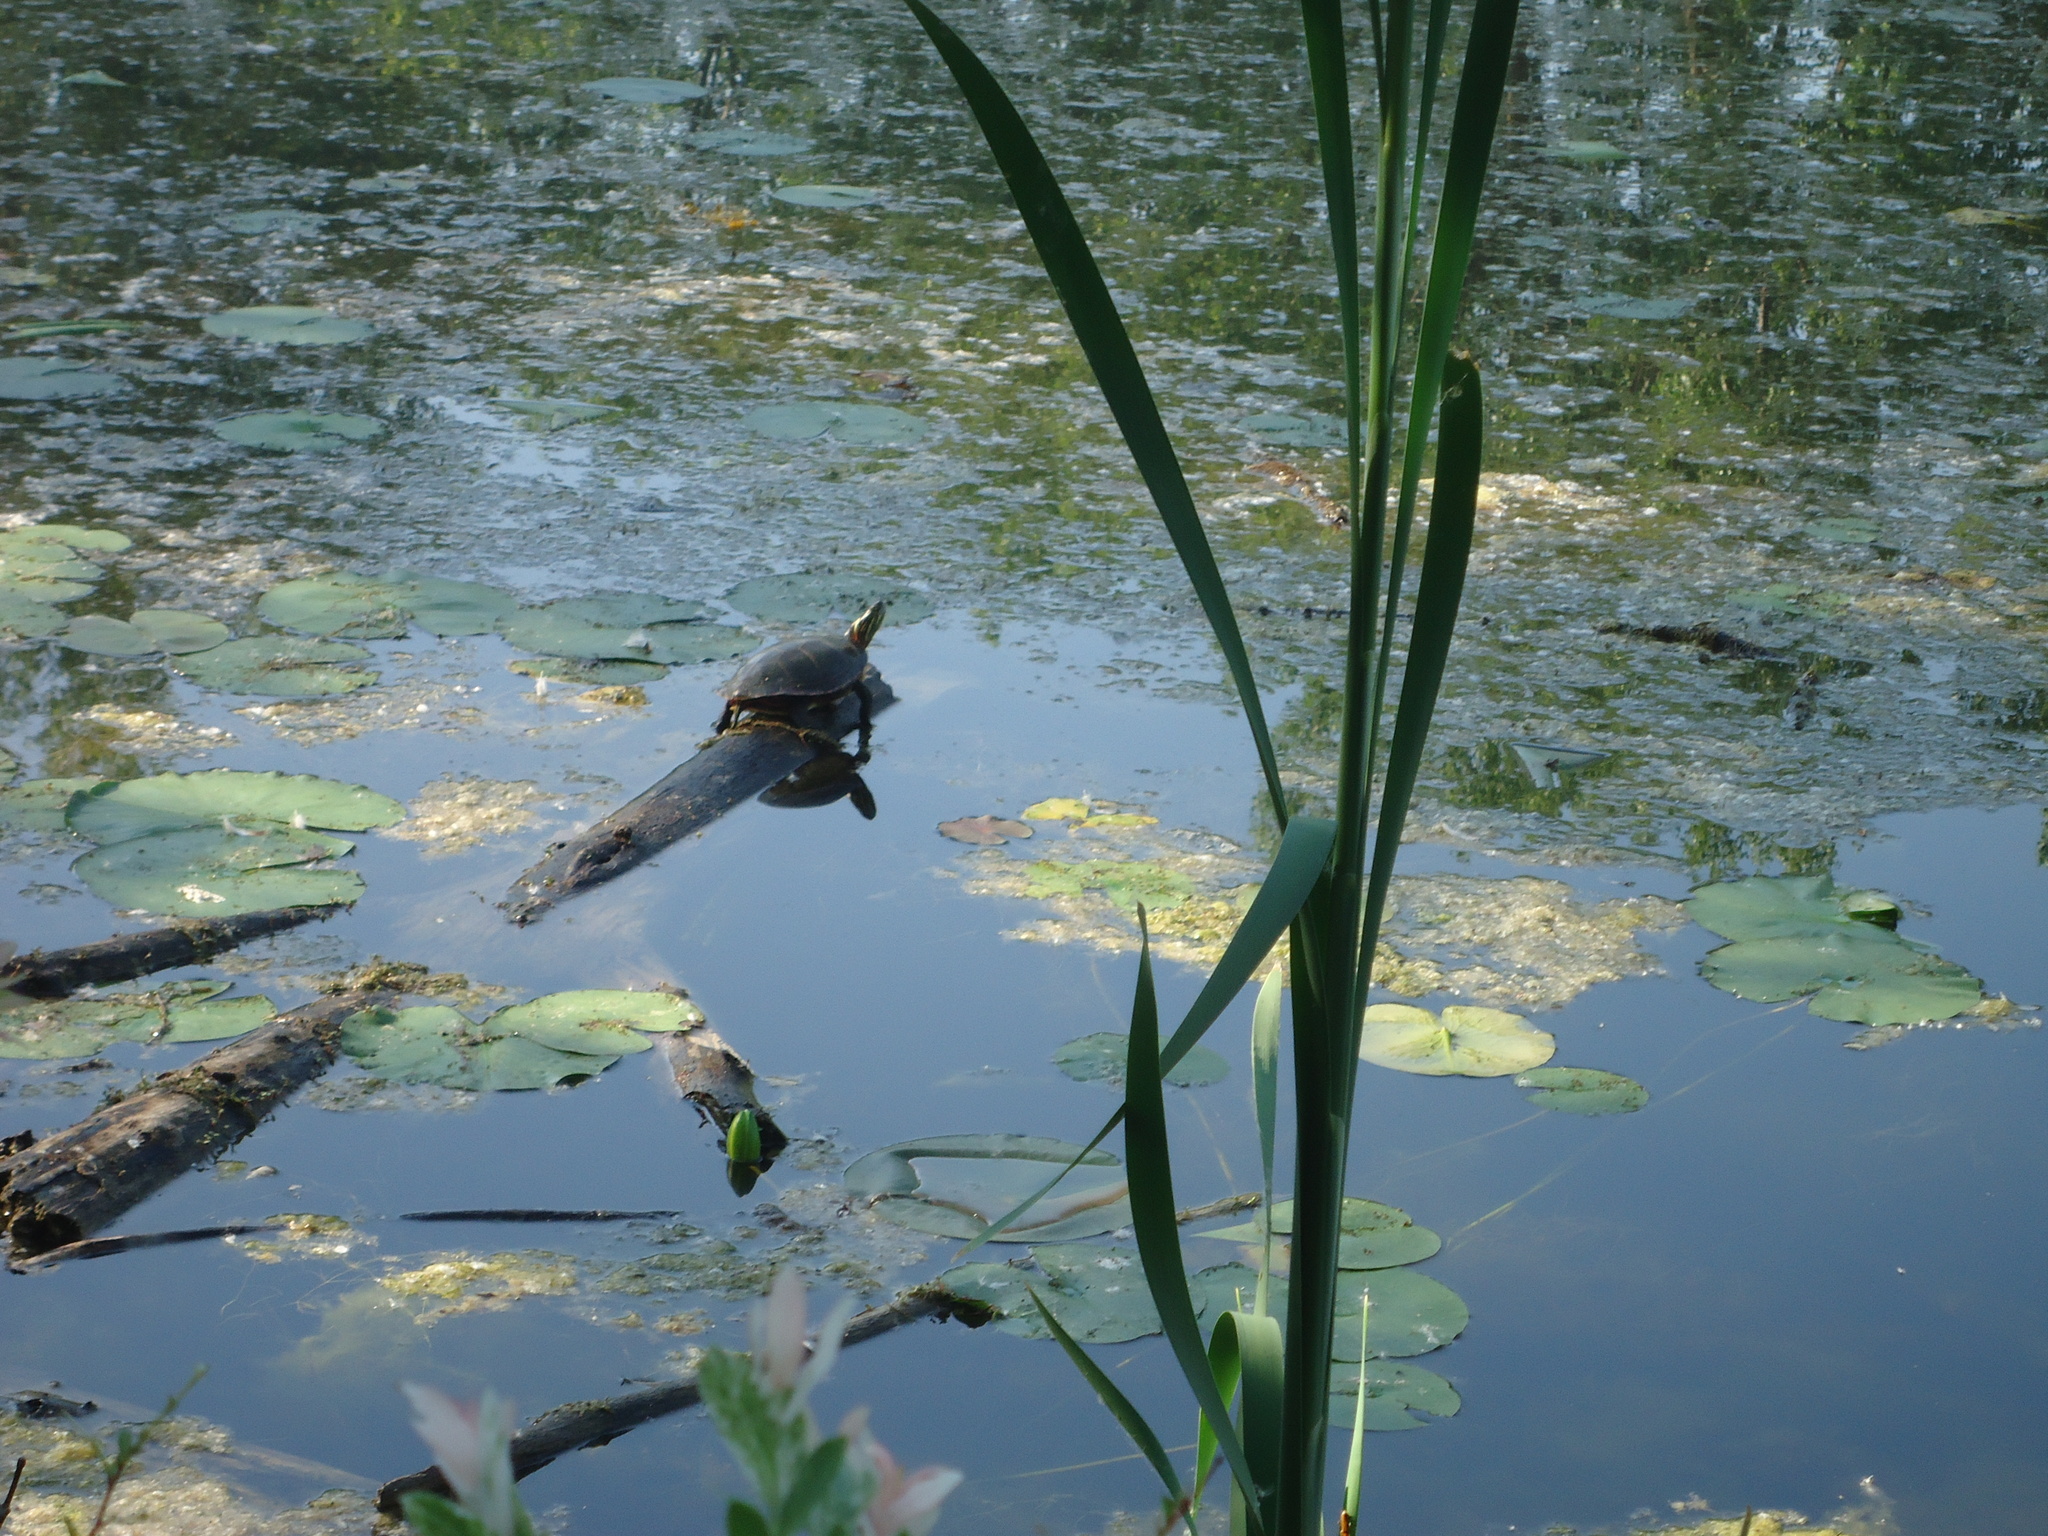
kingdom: Animalia
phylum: Chordata
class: Testudines
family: Emydidae
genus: Chrysemys
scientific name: Chrysemys picta
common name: Painted turtle
